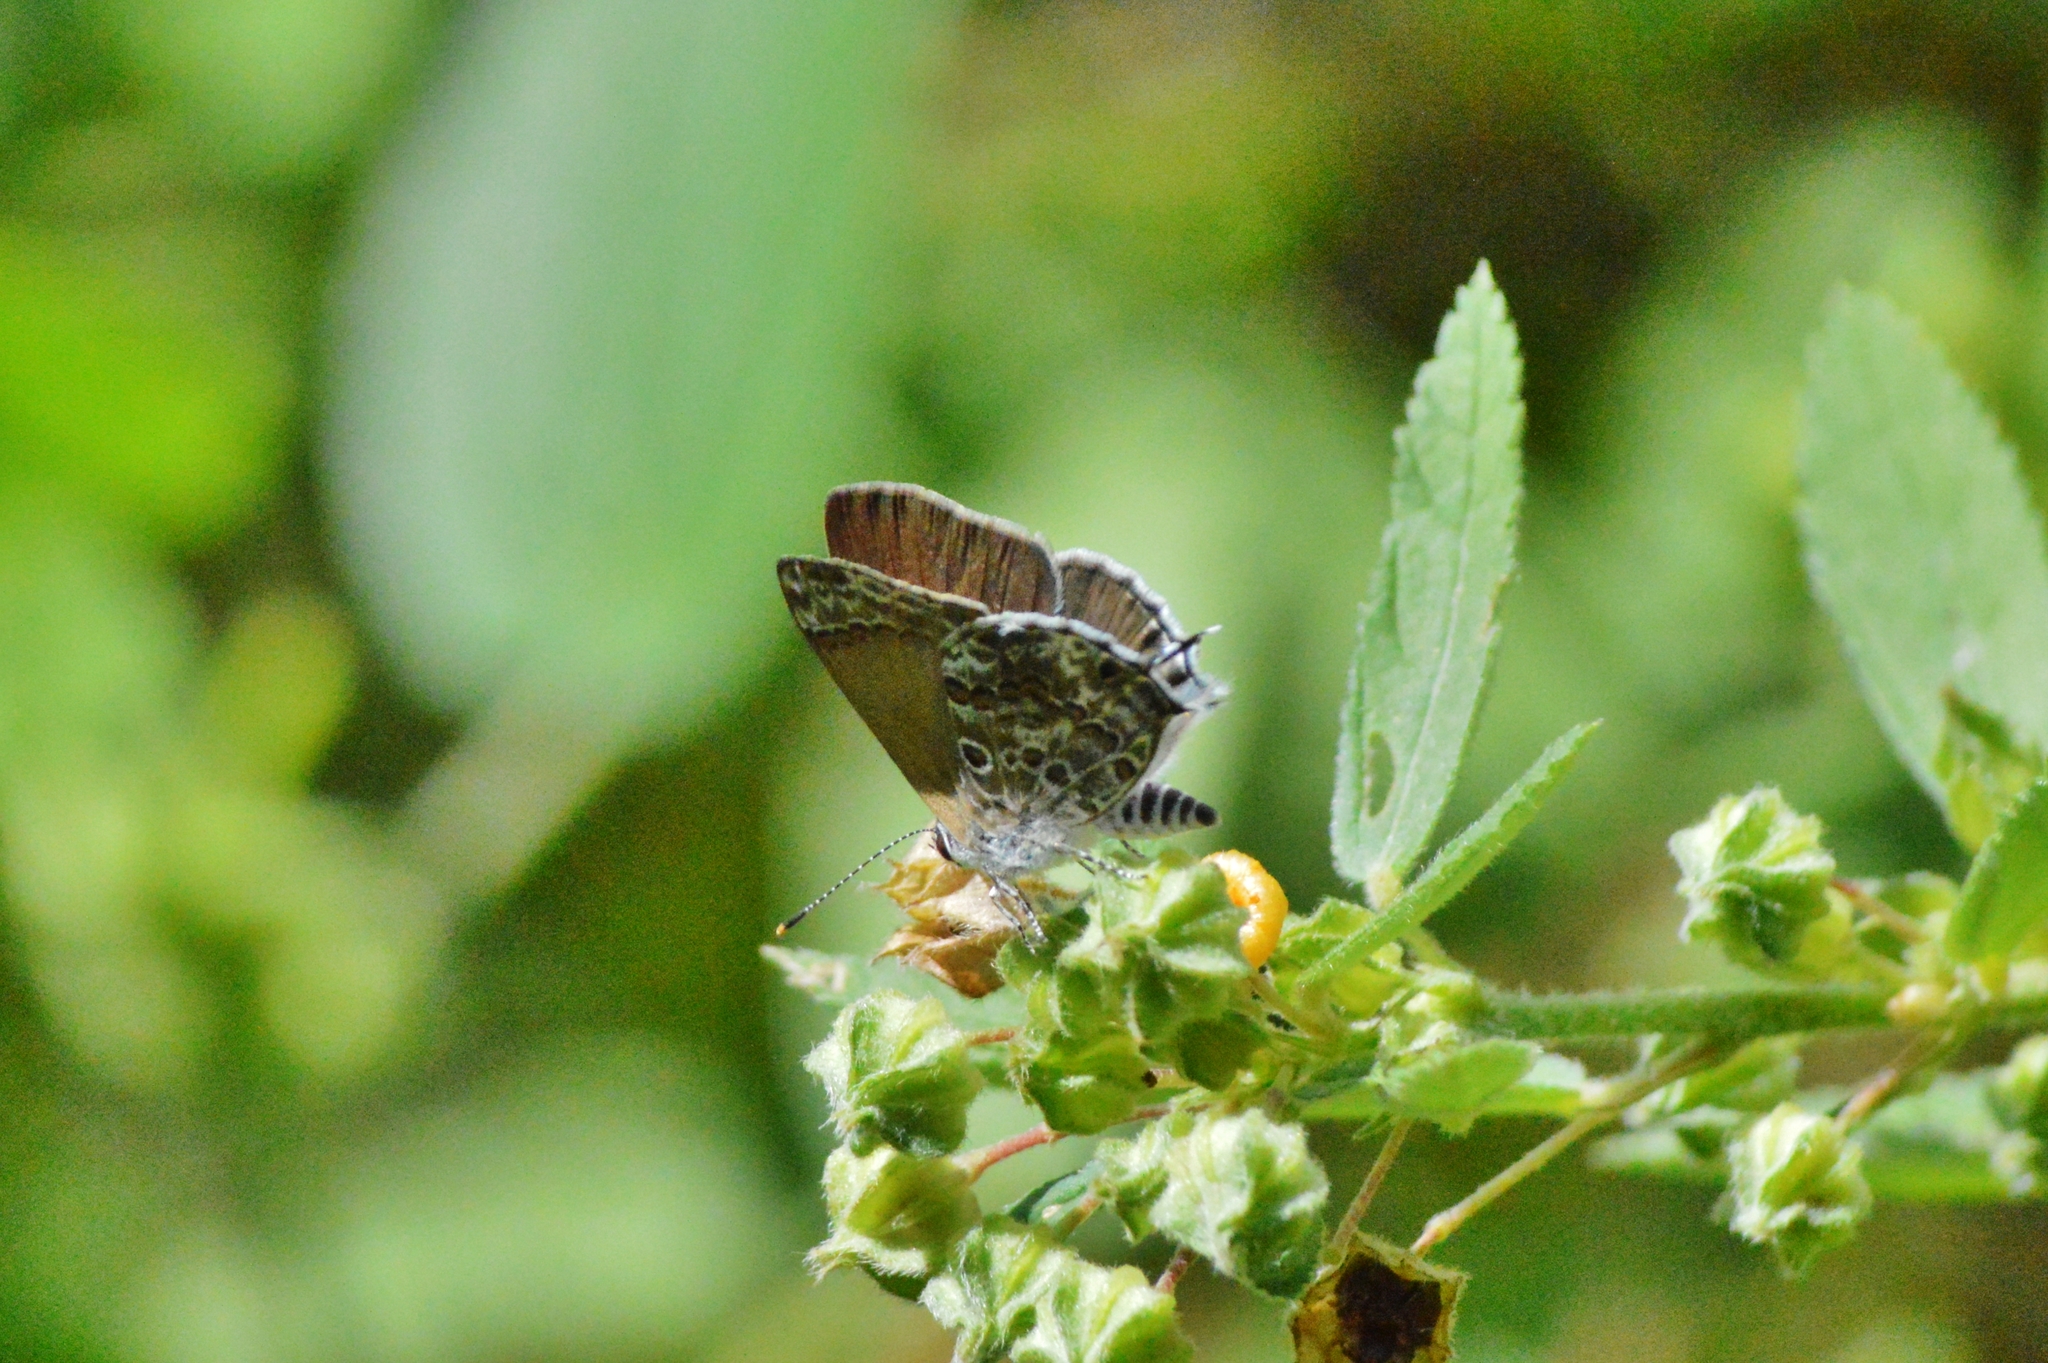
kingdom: Animalia
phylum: Arthropoda
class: Insecta
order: Lepidoptera
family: Lycaenidae
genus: Strymon
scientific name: Strymon astiocha
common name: Gray-spotted scrub-hairstreak
